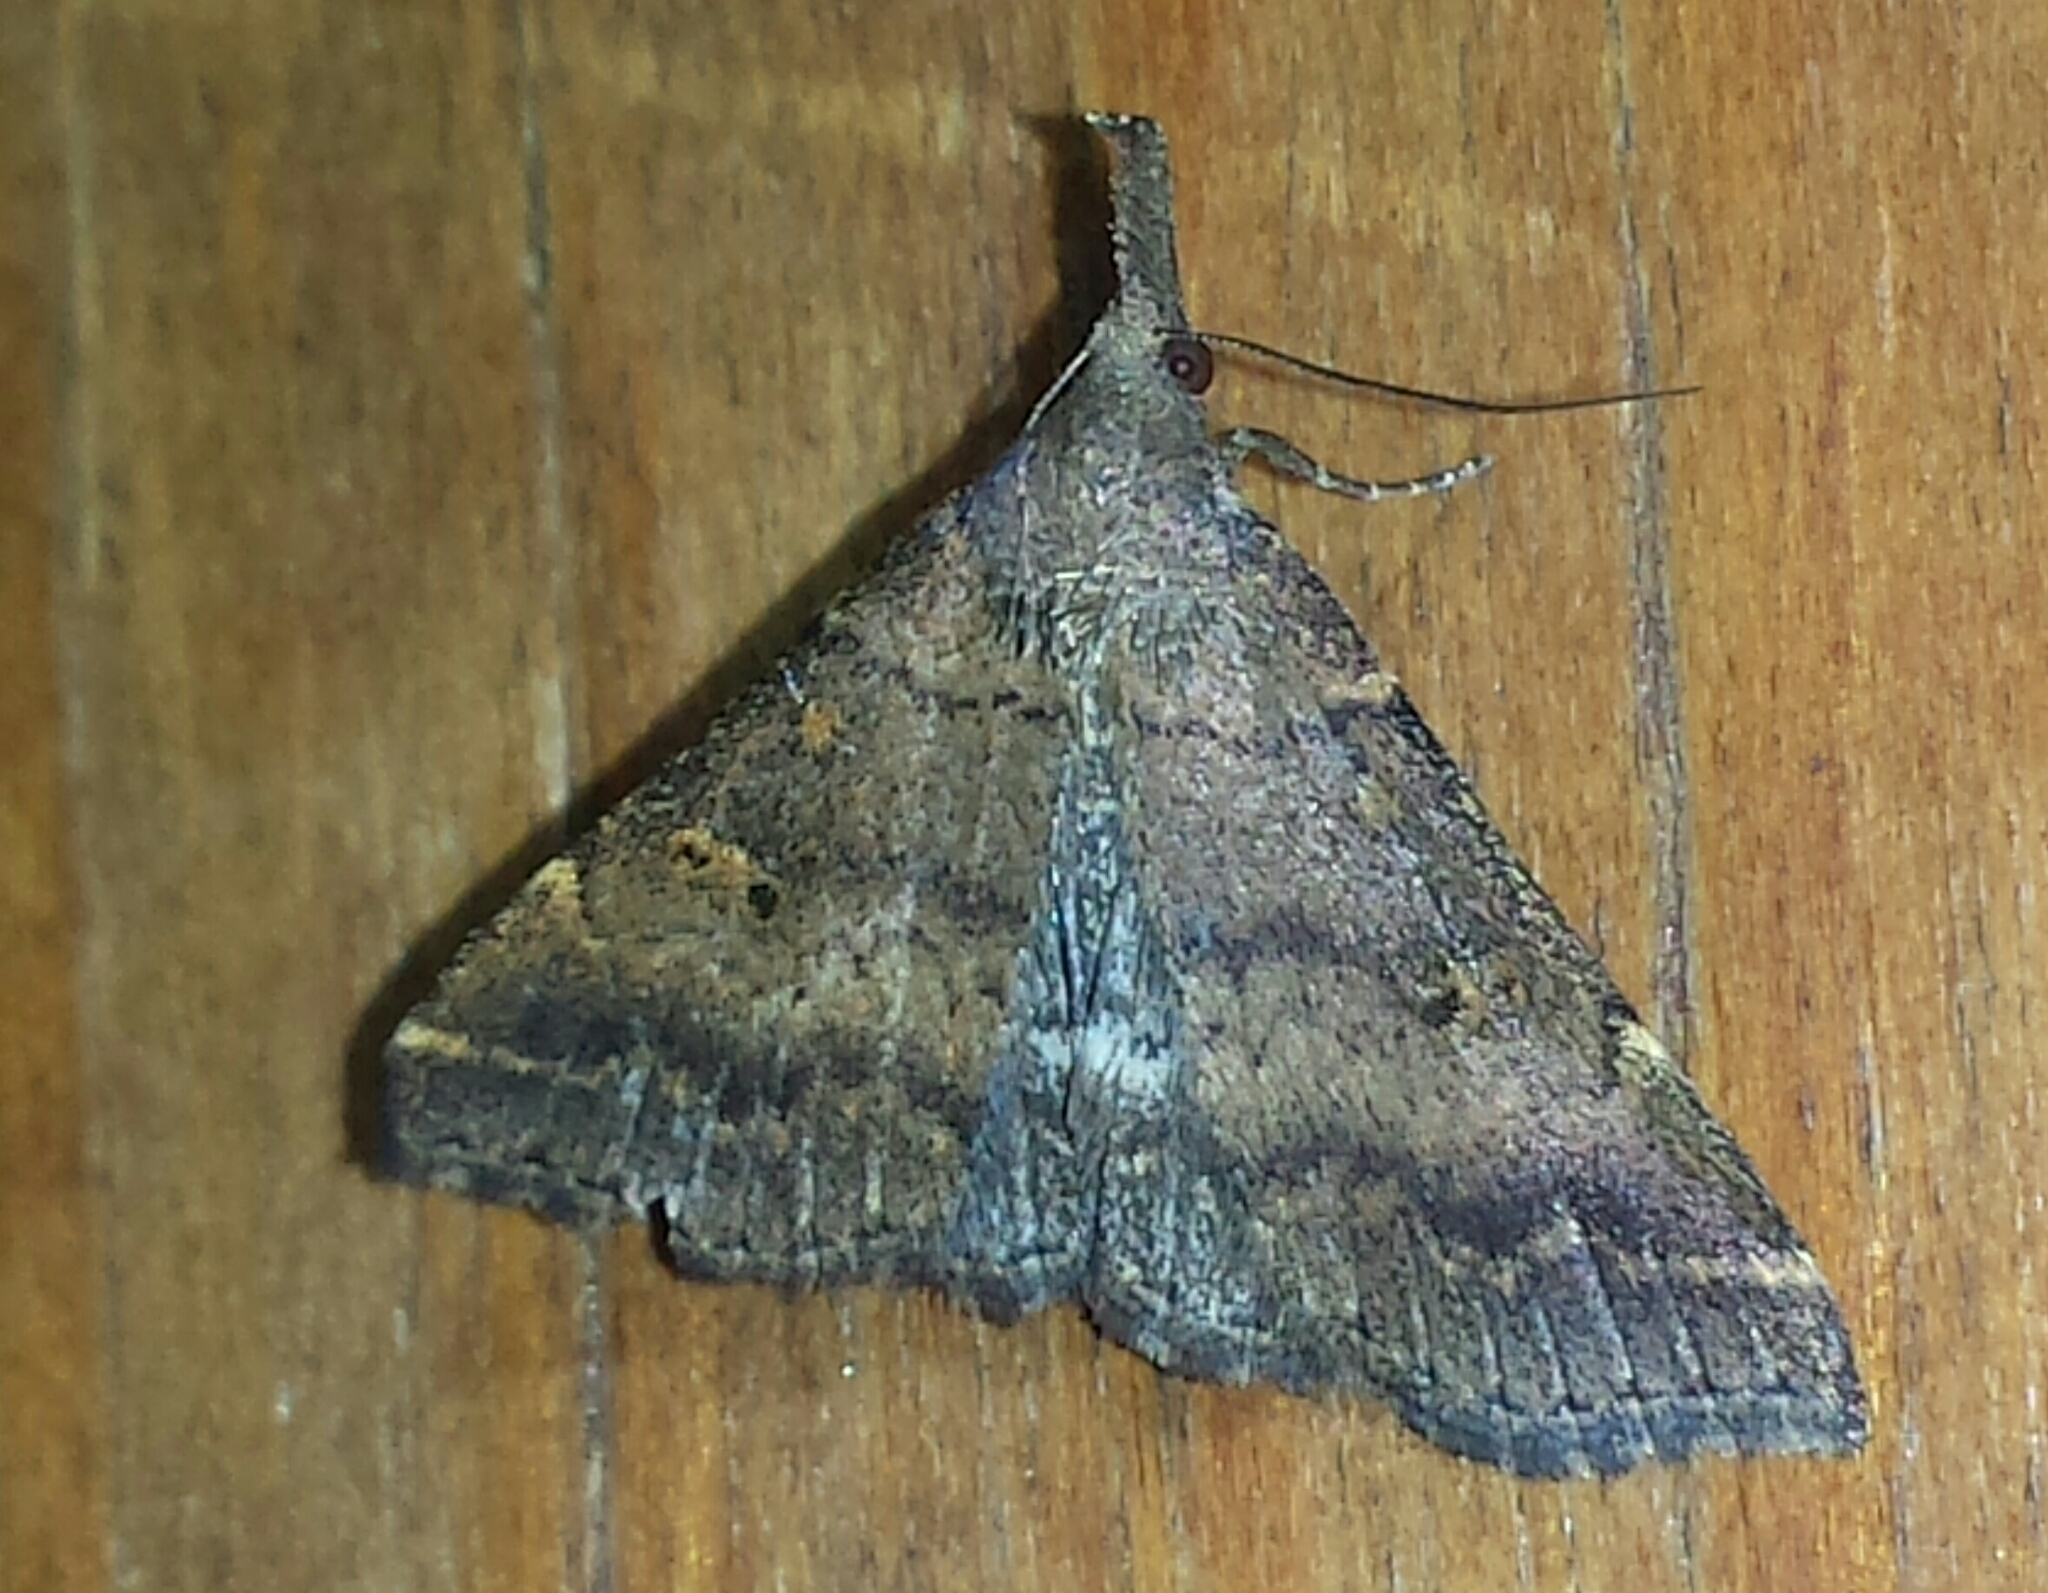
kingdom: Animalia
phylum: Arthropoda
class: Insecta
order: Lepidoptera
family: Erebidae
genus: Renia
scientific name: Renia factiosalis
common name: Sociable renia moth
